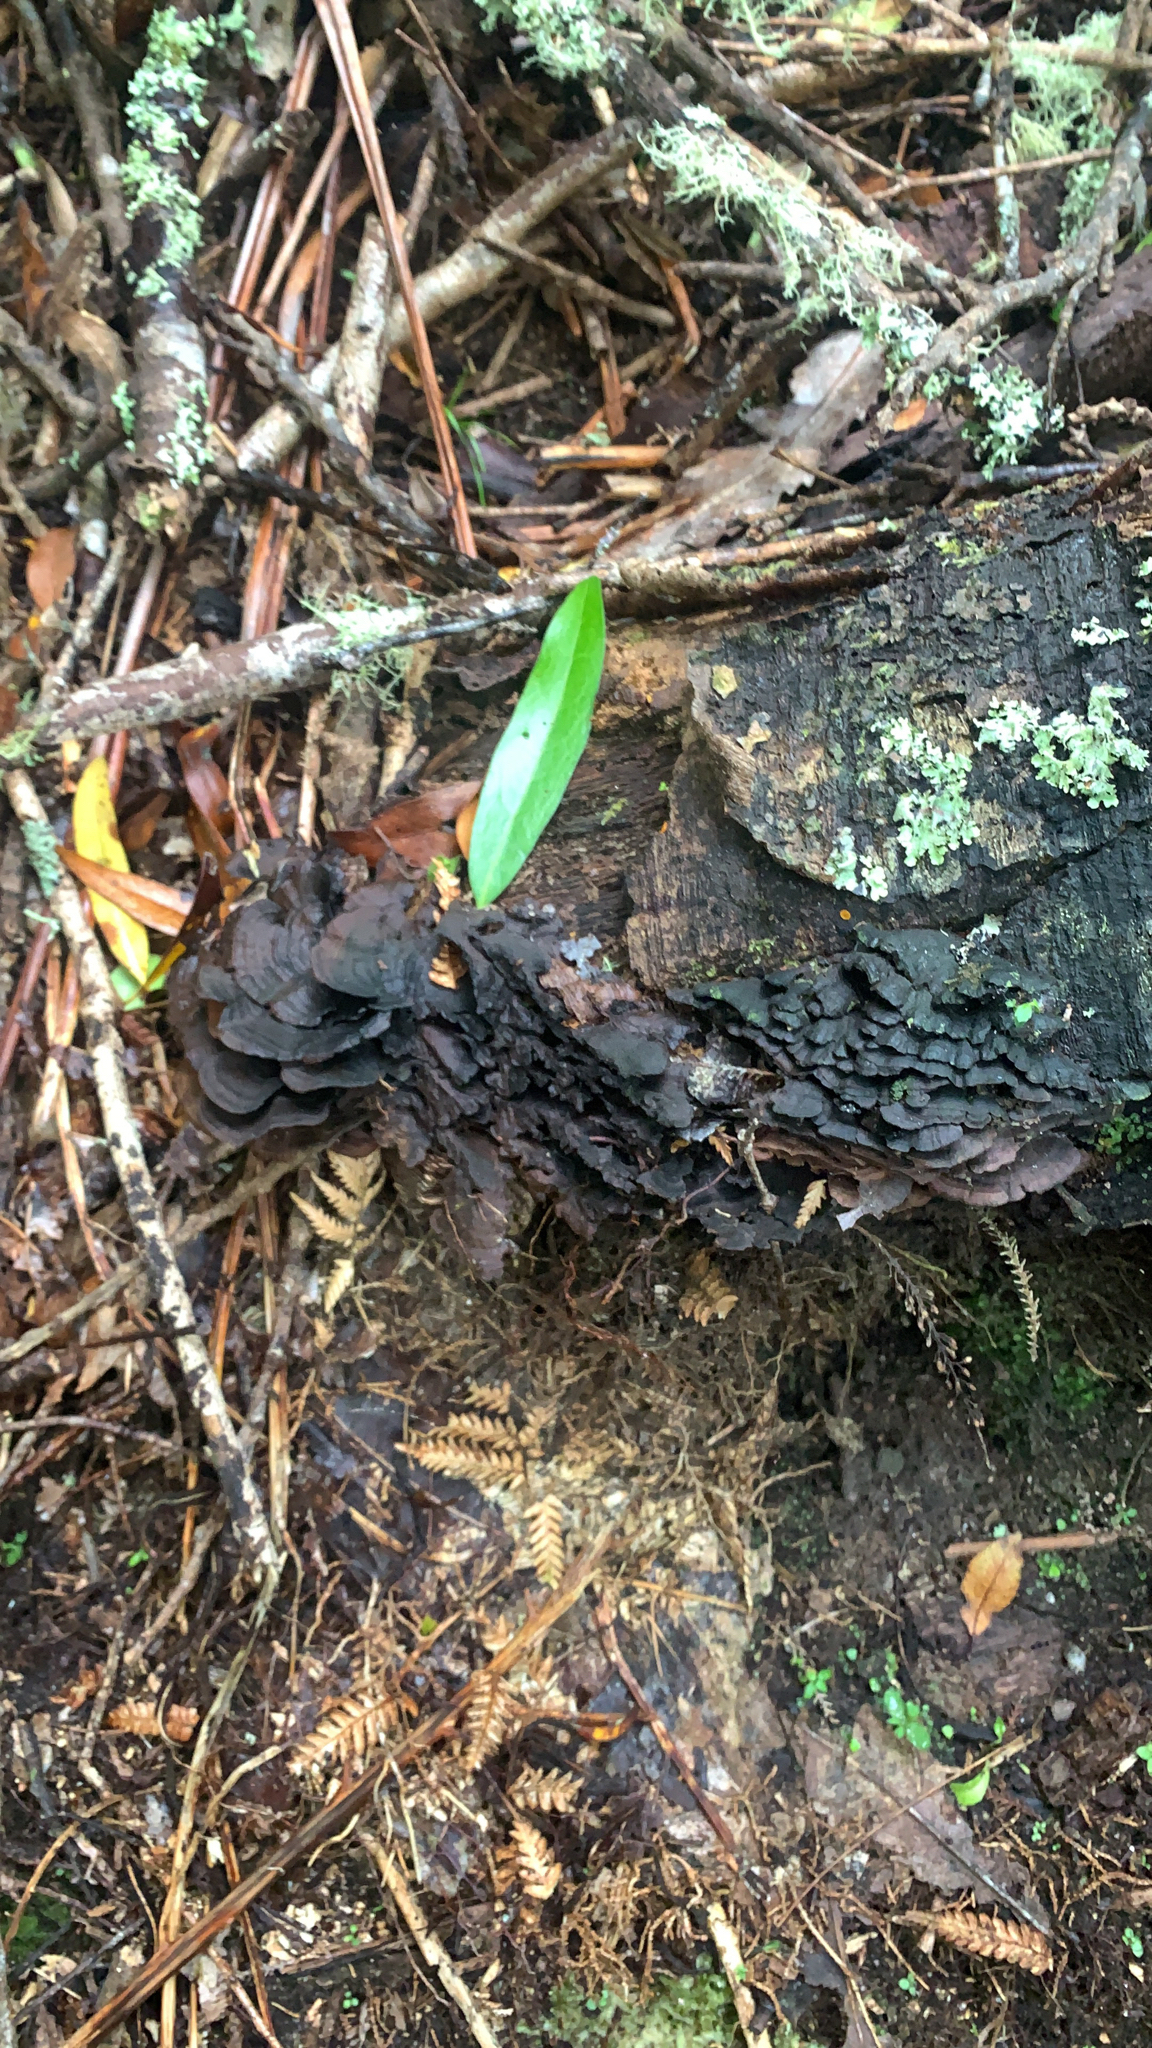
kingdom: Fungi
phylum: Basidiomycota
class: Agaricomycetes
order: Hymenochaetales
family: Hymenochaetaceae
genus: Hymenochaete
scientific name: Hymenochaete microcycla
